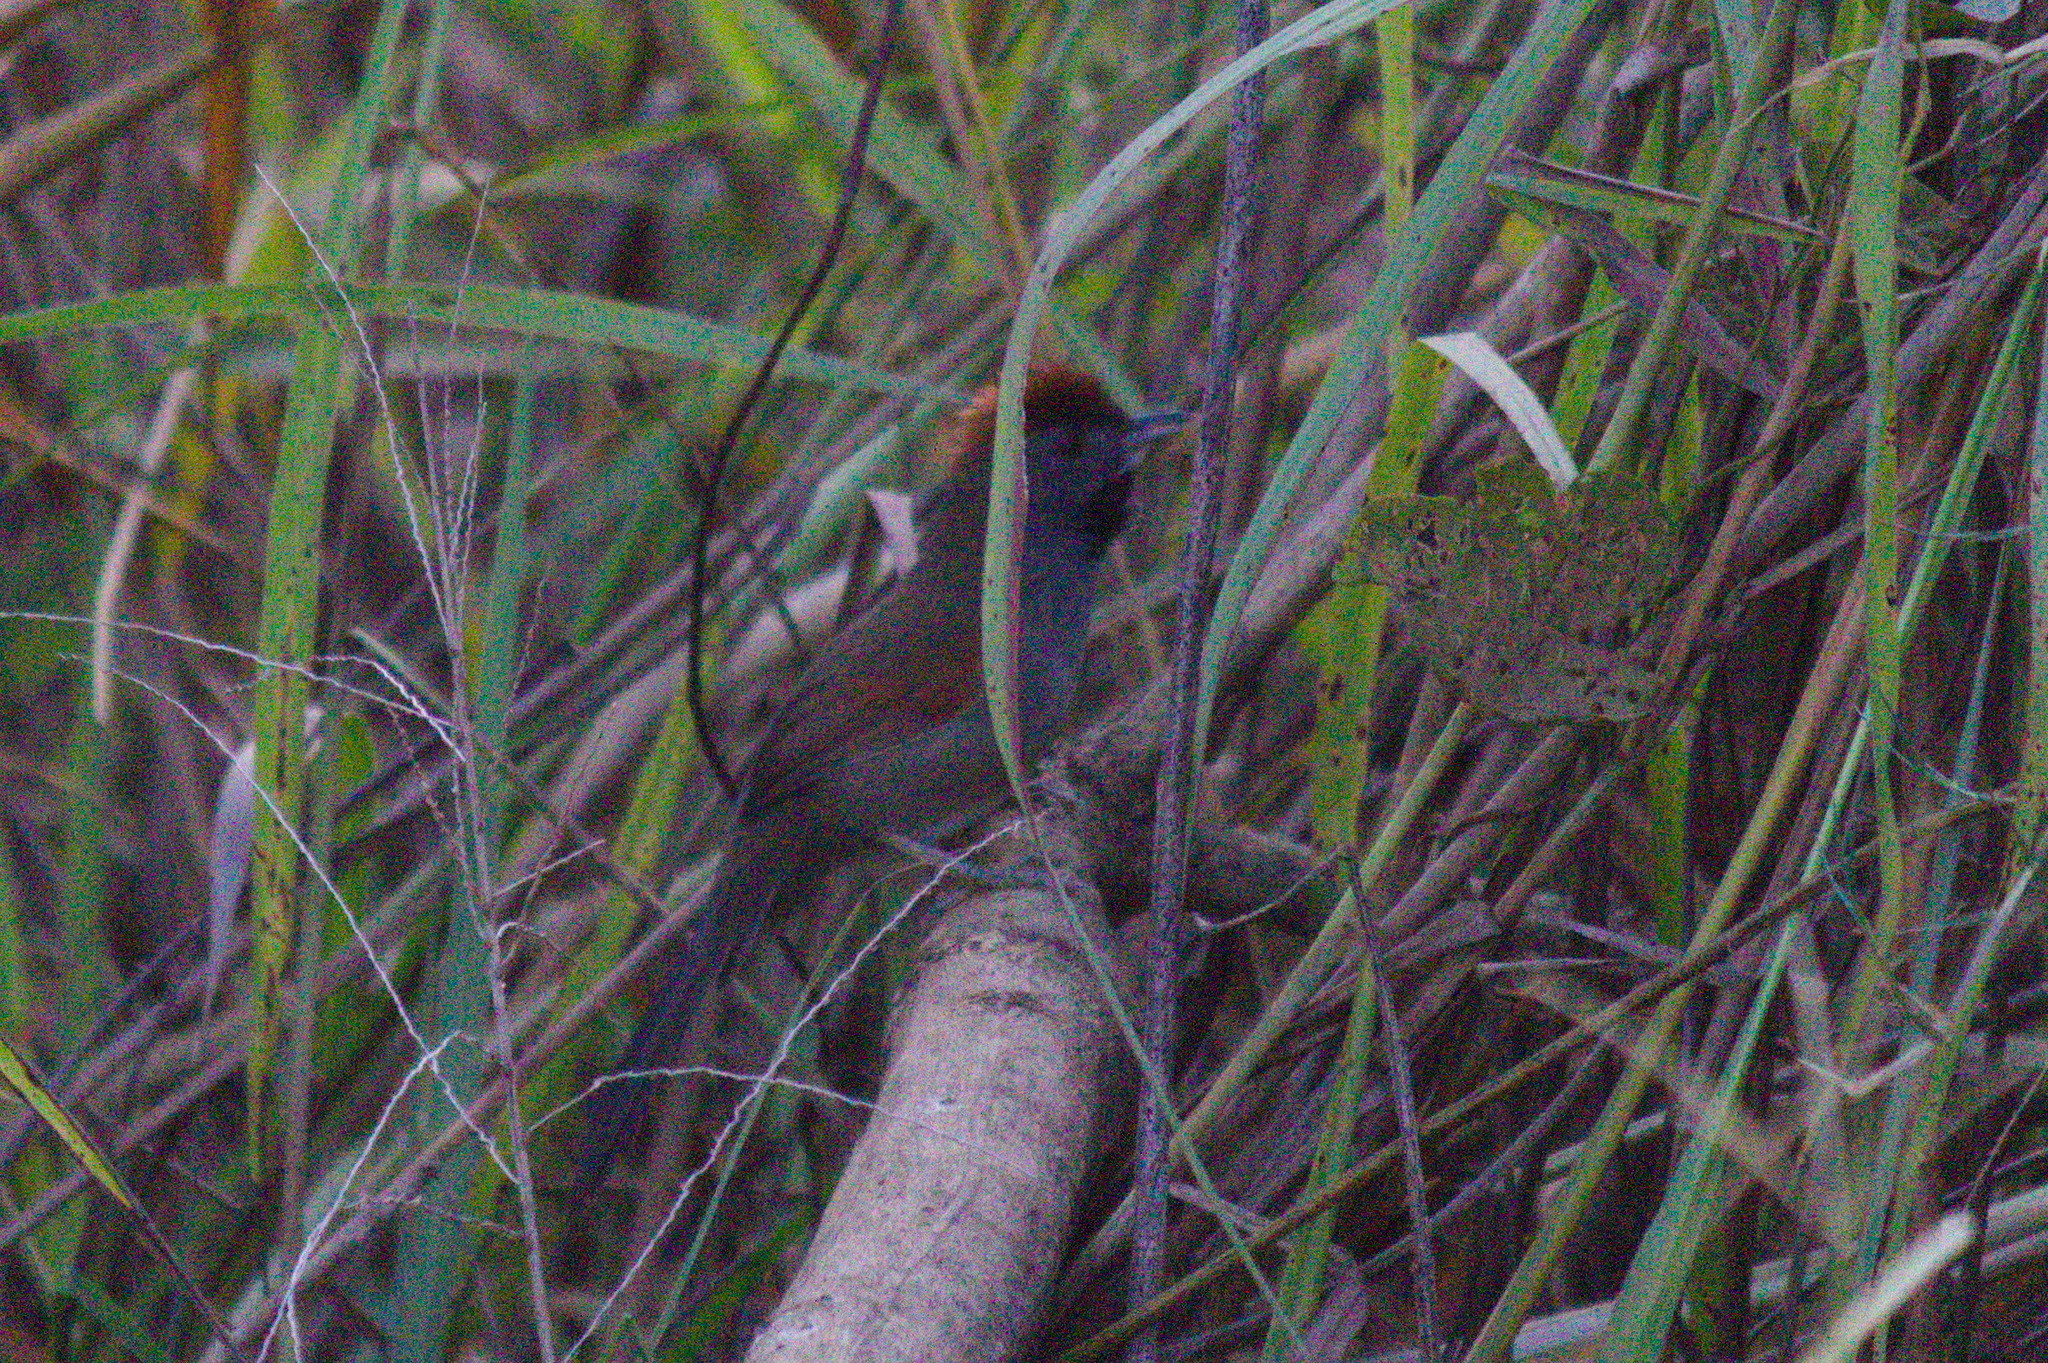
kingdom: Animalia
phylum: Chordata
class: Aves
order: Passeriformes
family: Furnariidae
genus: Synallaxis
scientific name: Synallaxis hypospodia
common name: Cinereous-breasted spinetail
